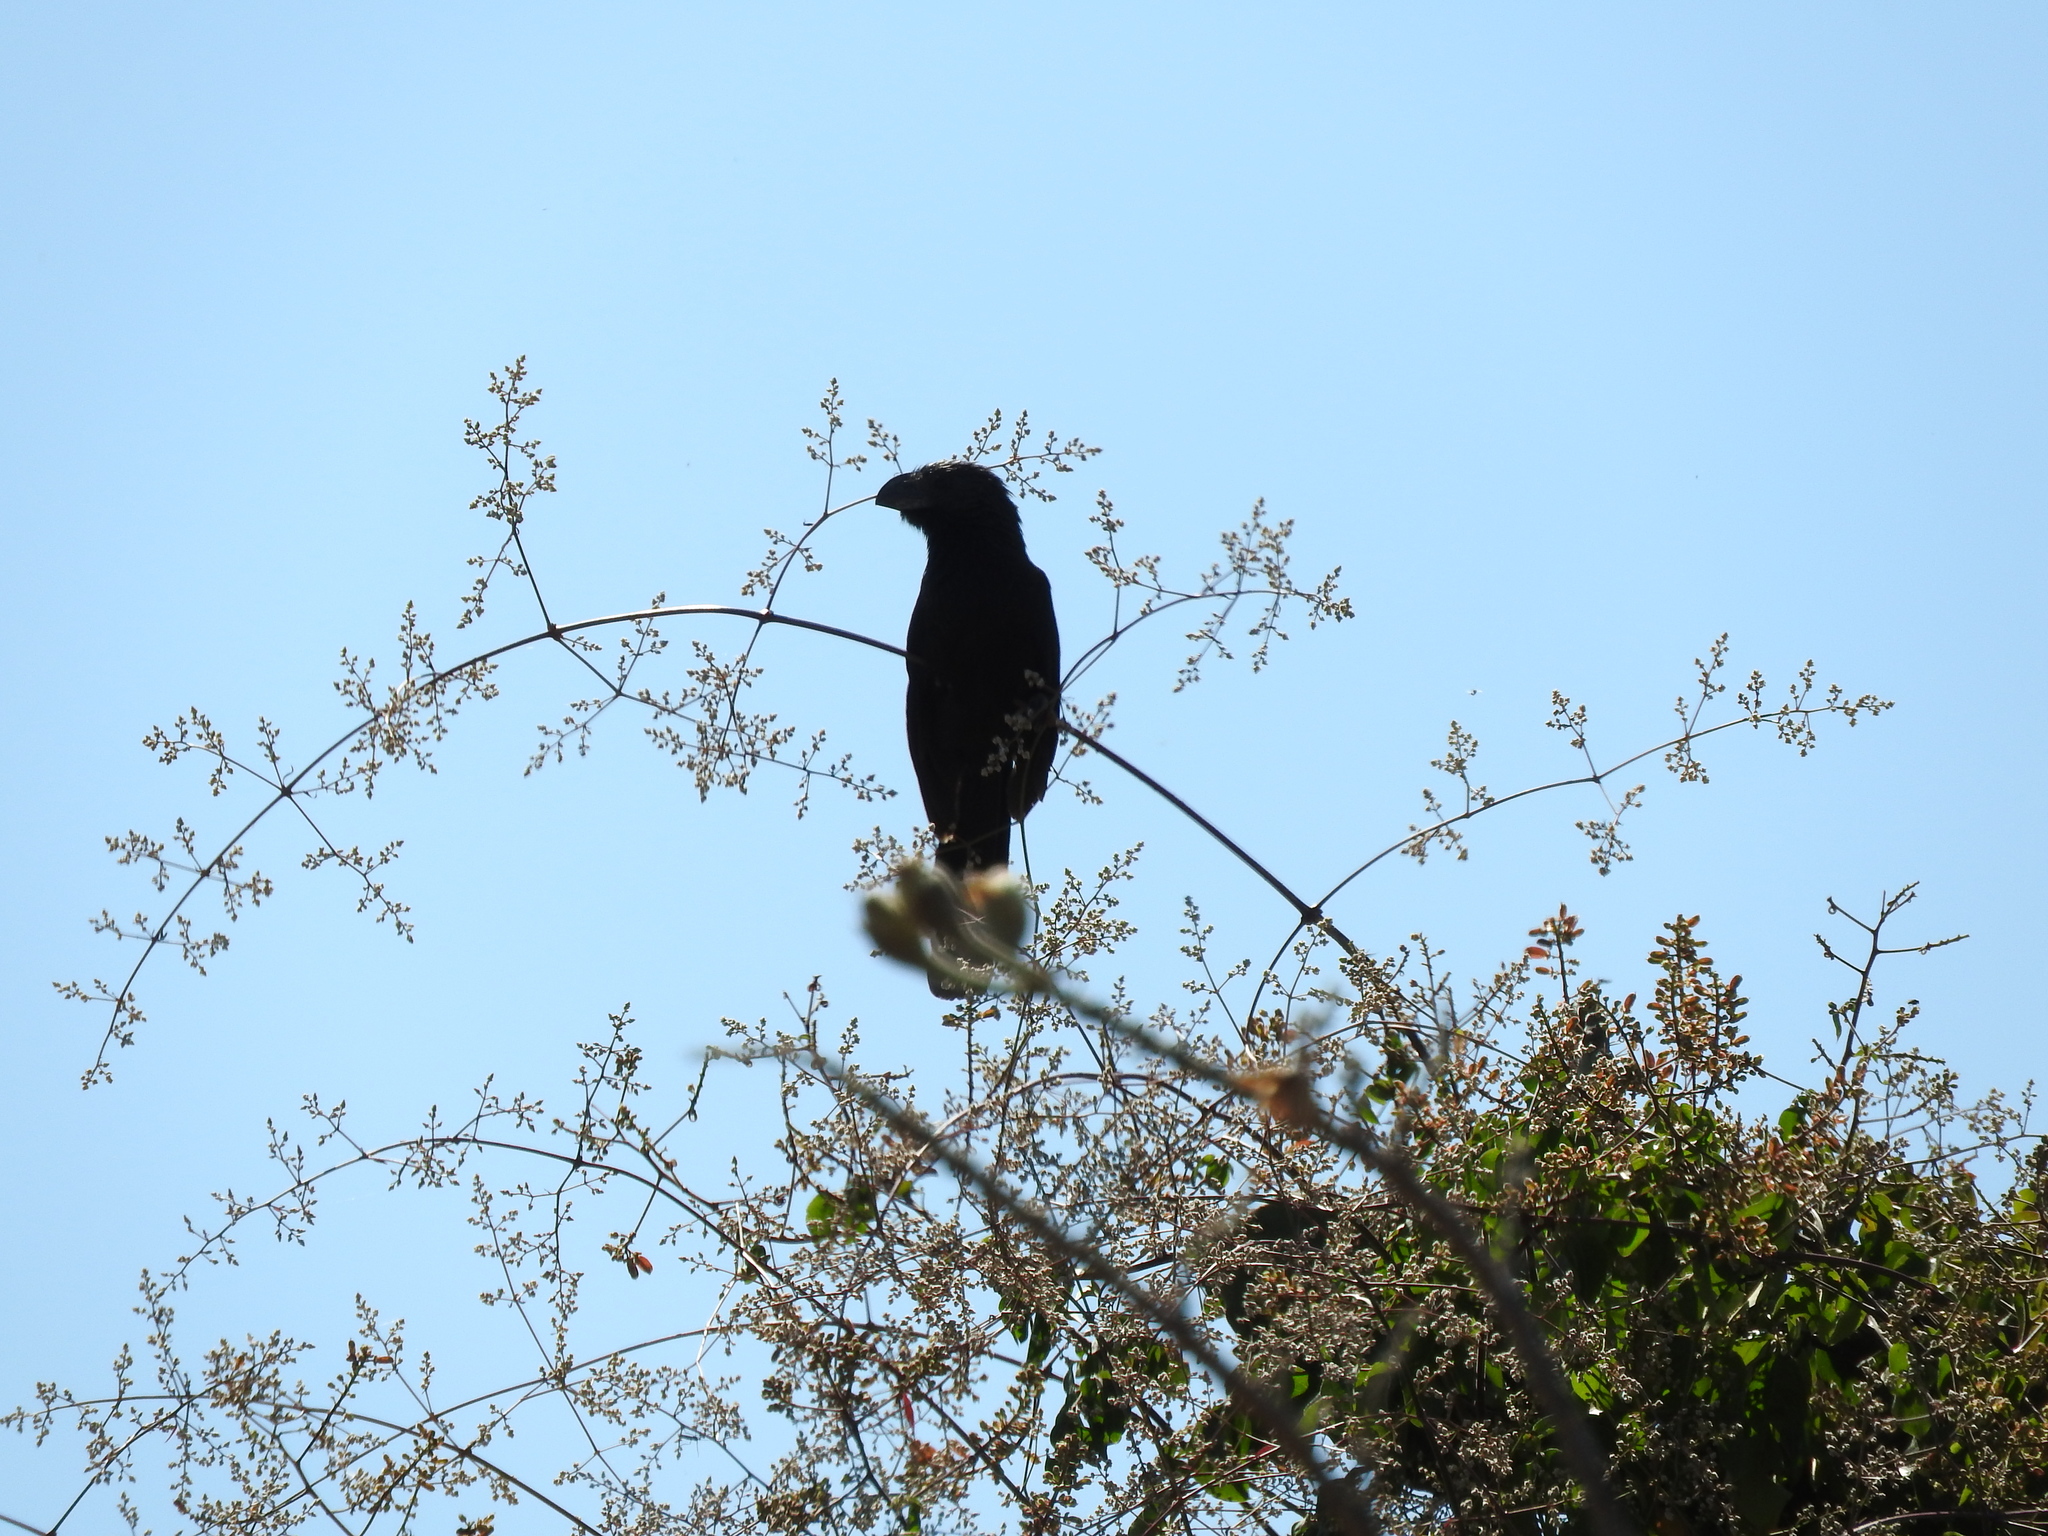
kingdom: Animalia
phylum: Chordata
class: Aves
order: Cuculiformes
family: Cuculidae
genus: Crotophaga
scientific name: Crotophaga sulcirostris
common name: Groove-billed ani
